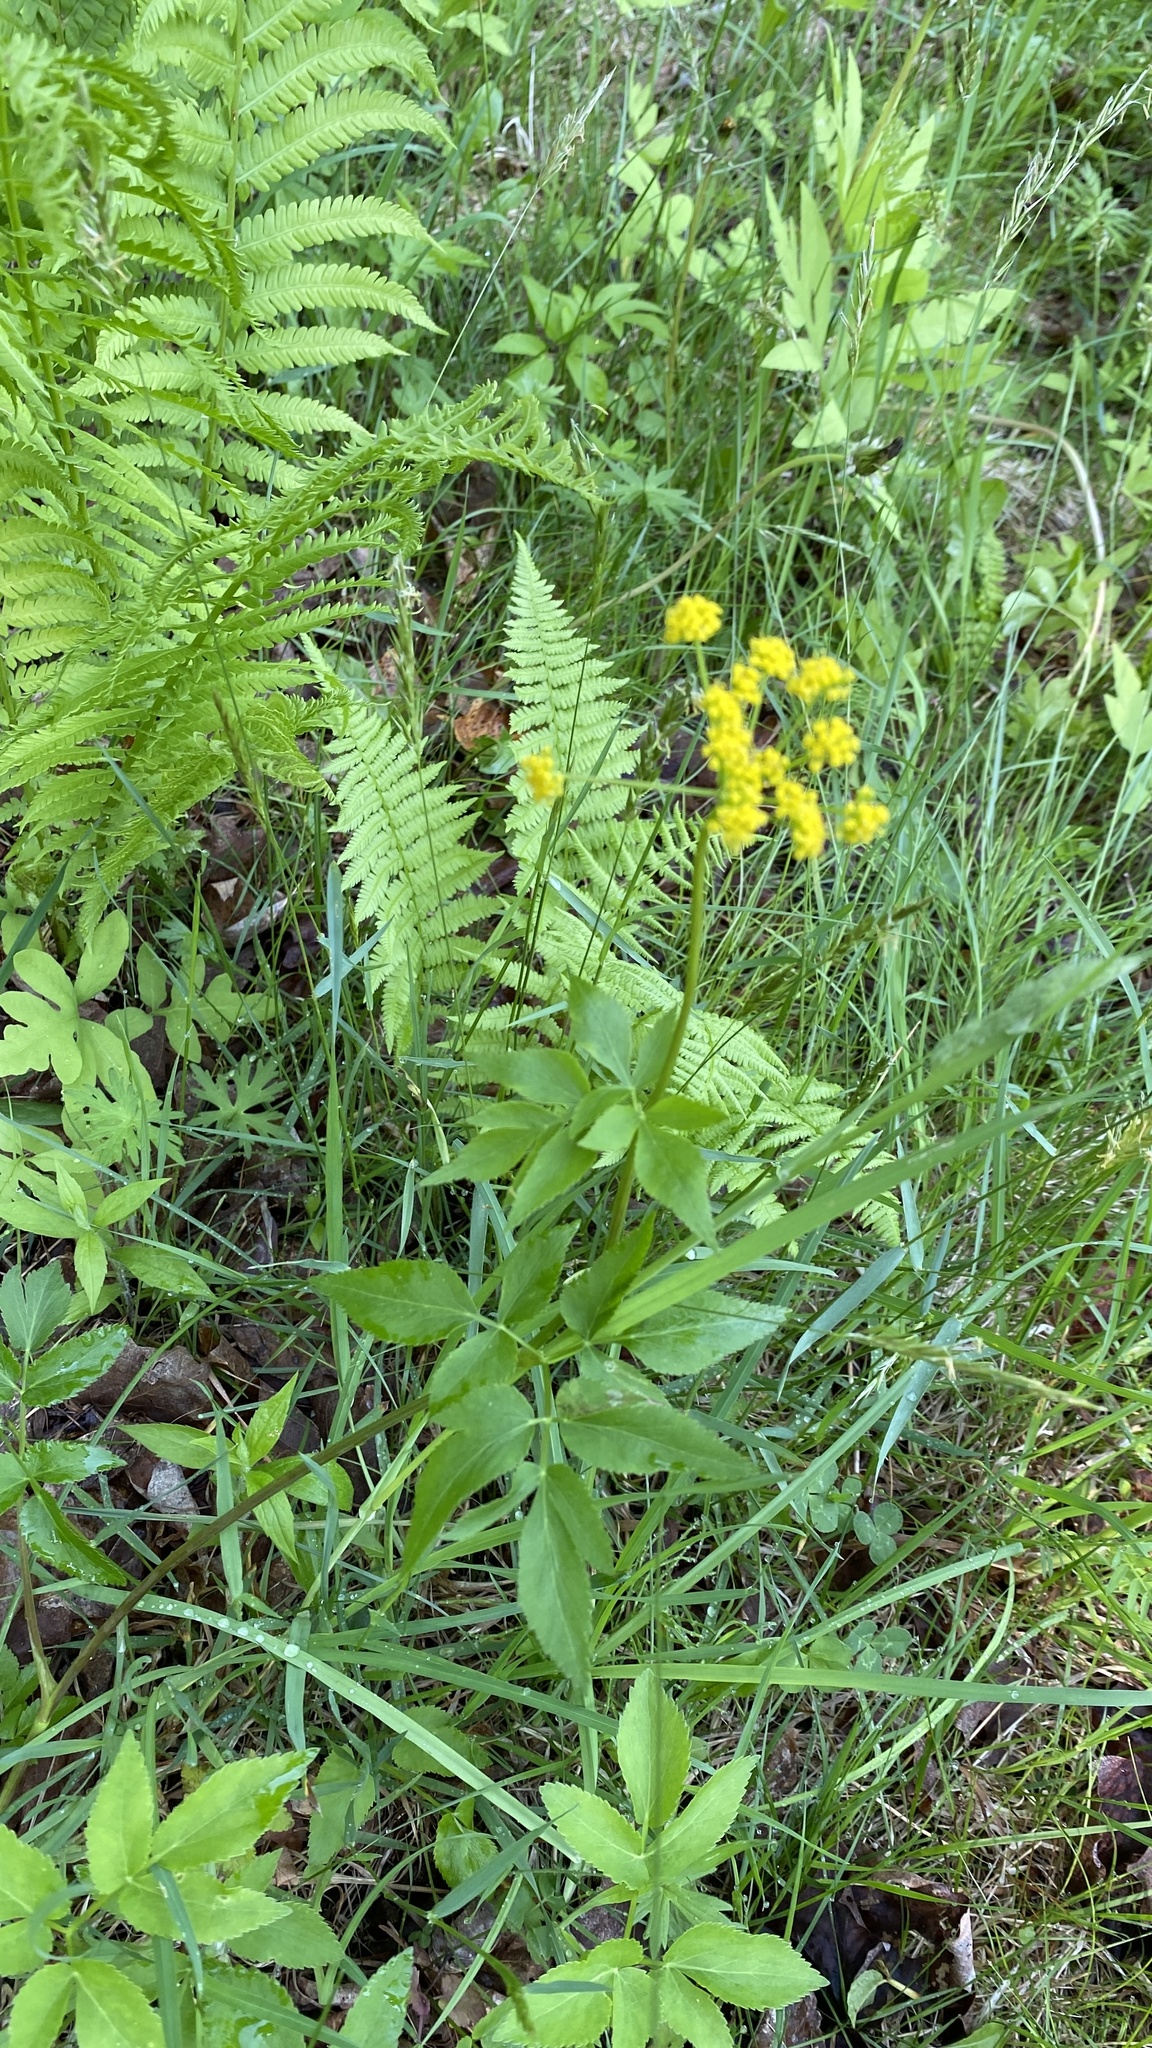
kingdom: Plantae
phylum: Tracheophyta
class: Magnoliopsida
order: Apiales
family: Apiaceae
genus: Zizia
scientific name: Zizia aurea
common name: Golden alexanders
